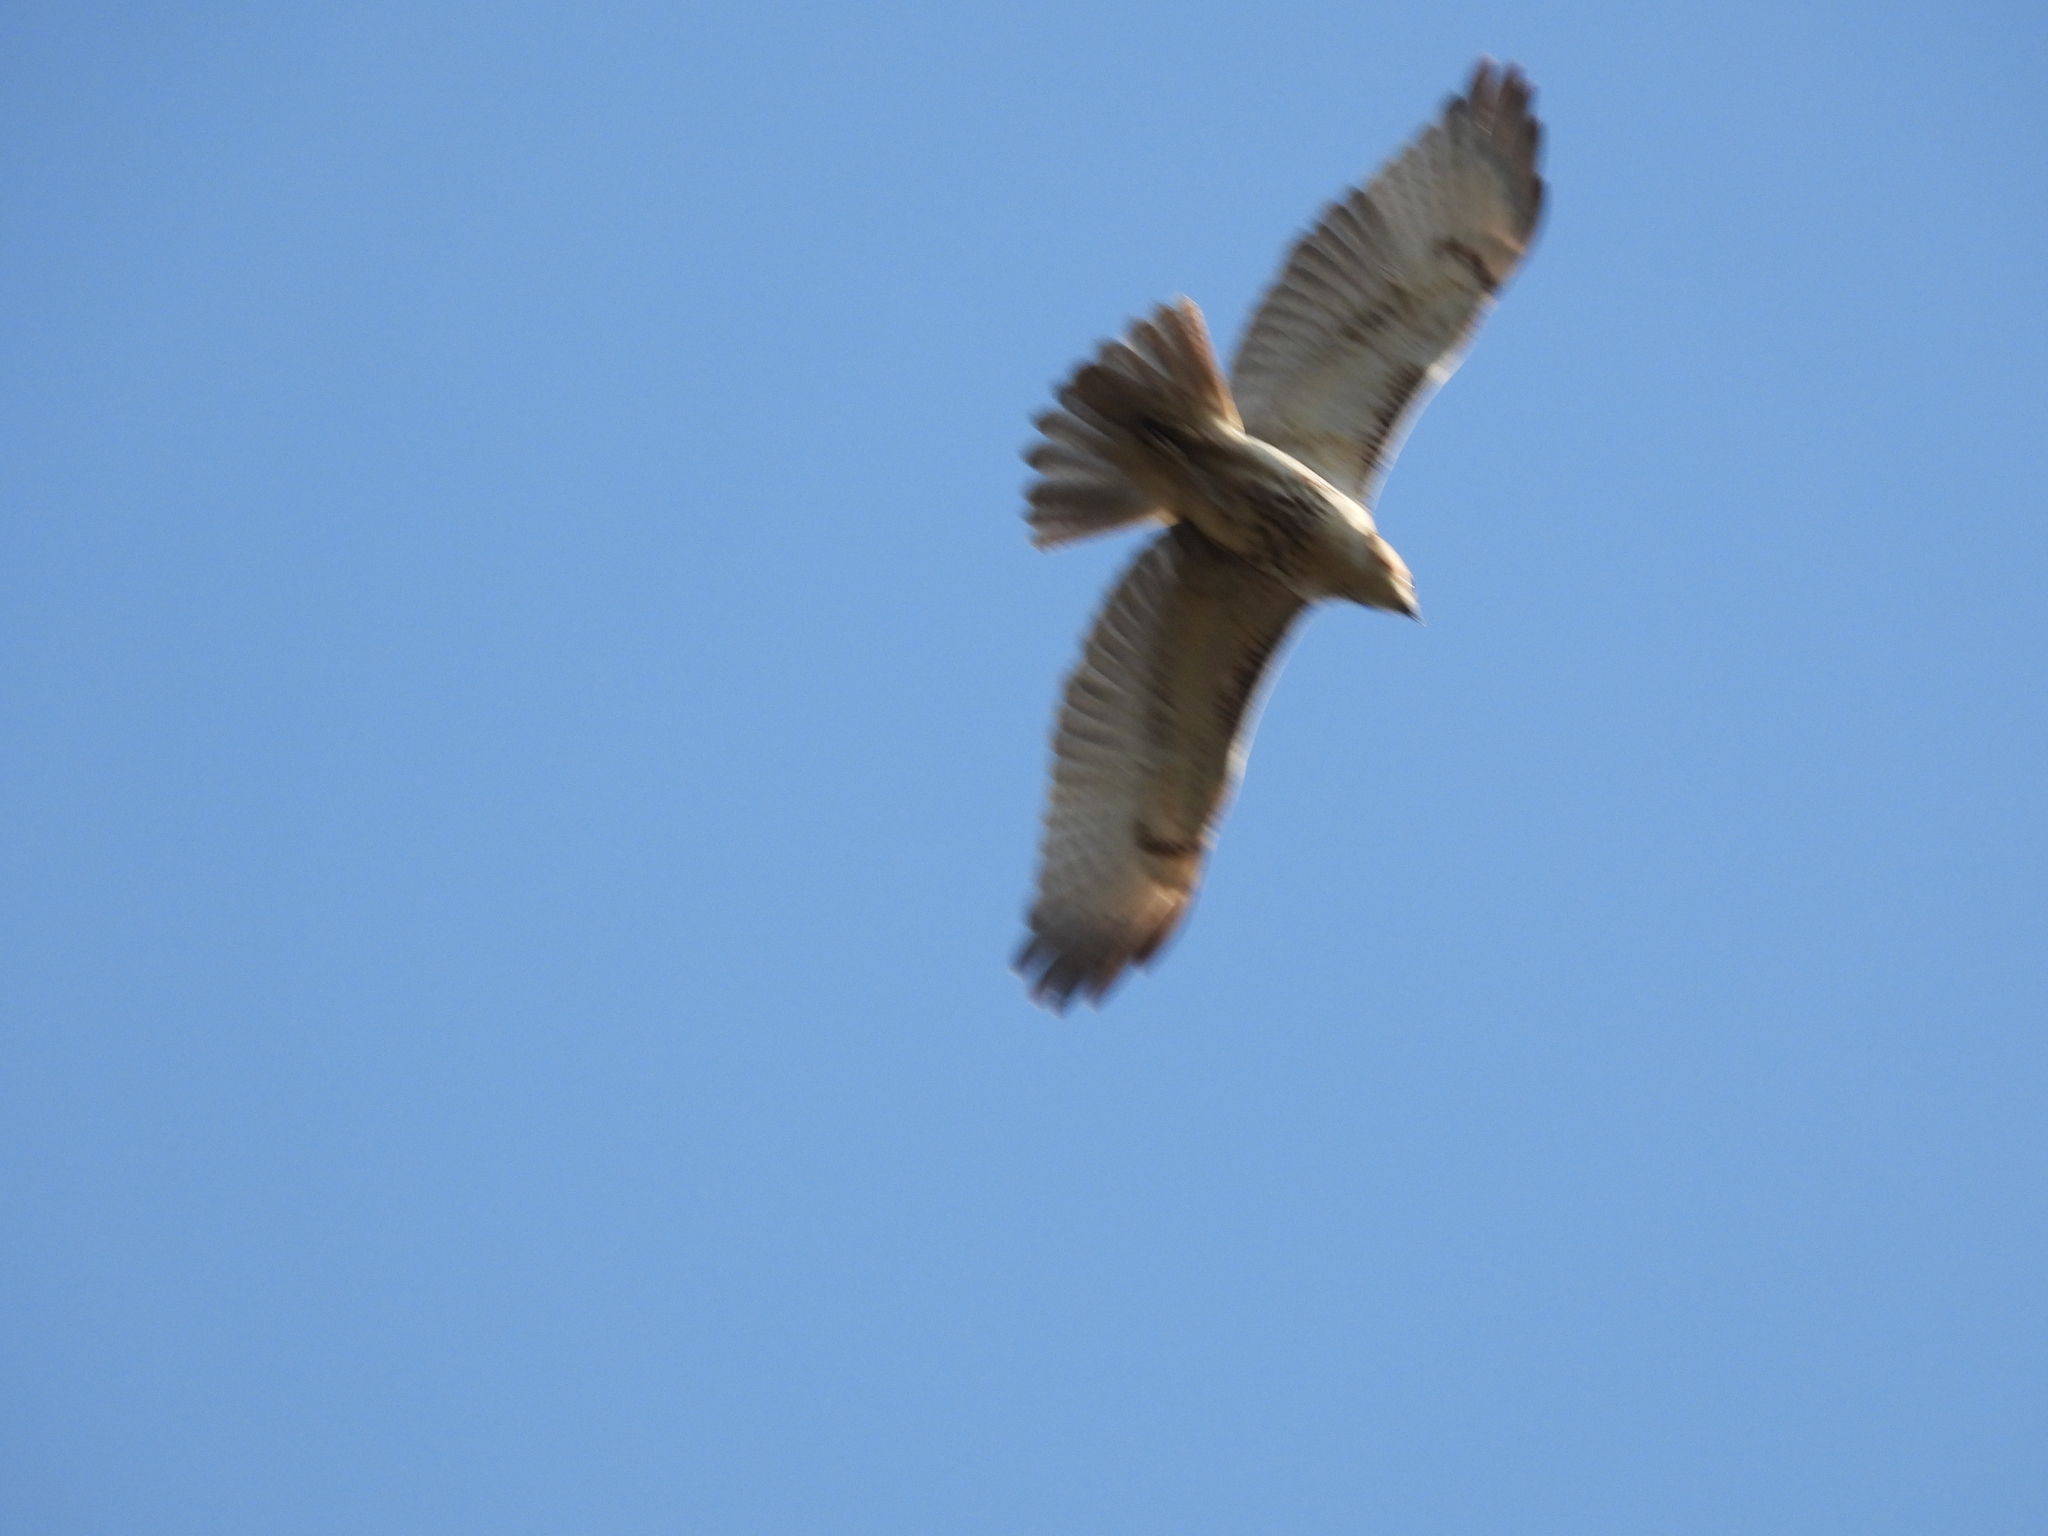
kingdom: Animalia
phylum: Chordata
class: Aves
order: Accipitriformes
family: Accipitridae
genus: Buteo
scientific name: Buteo jamaicensis
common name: Red-tailed hawk
